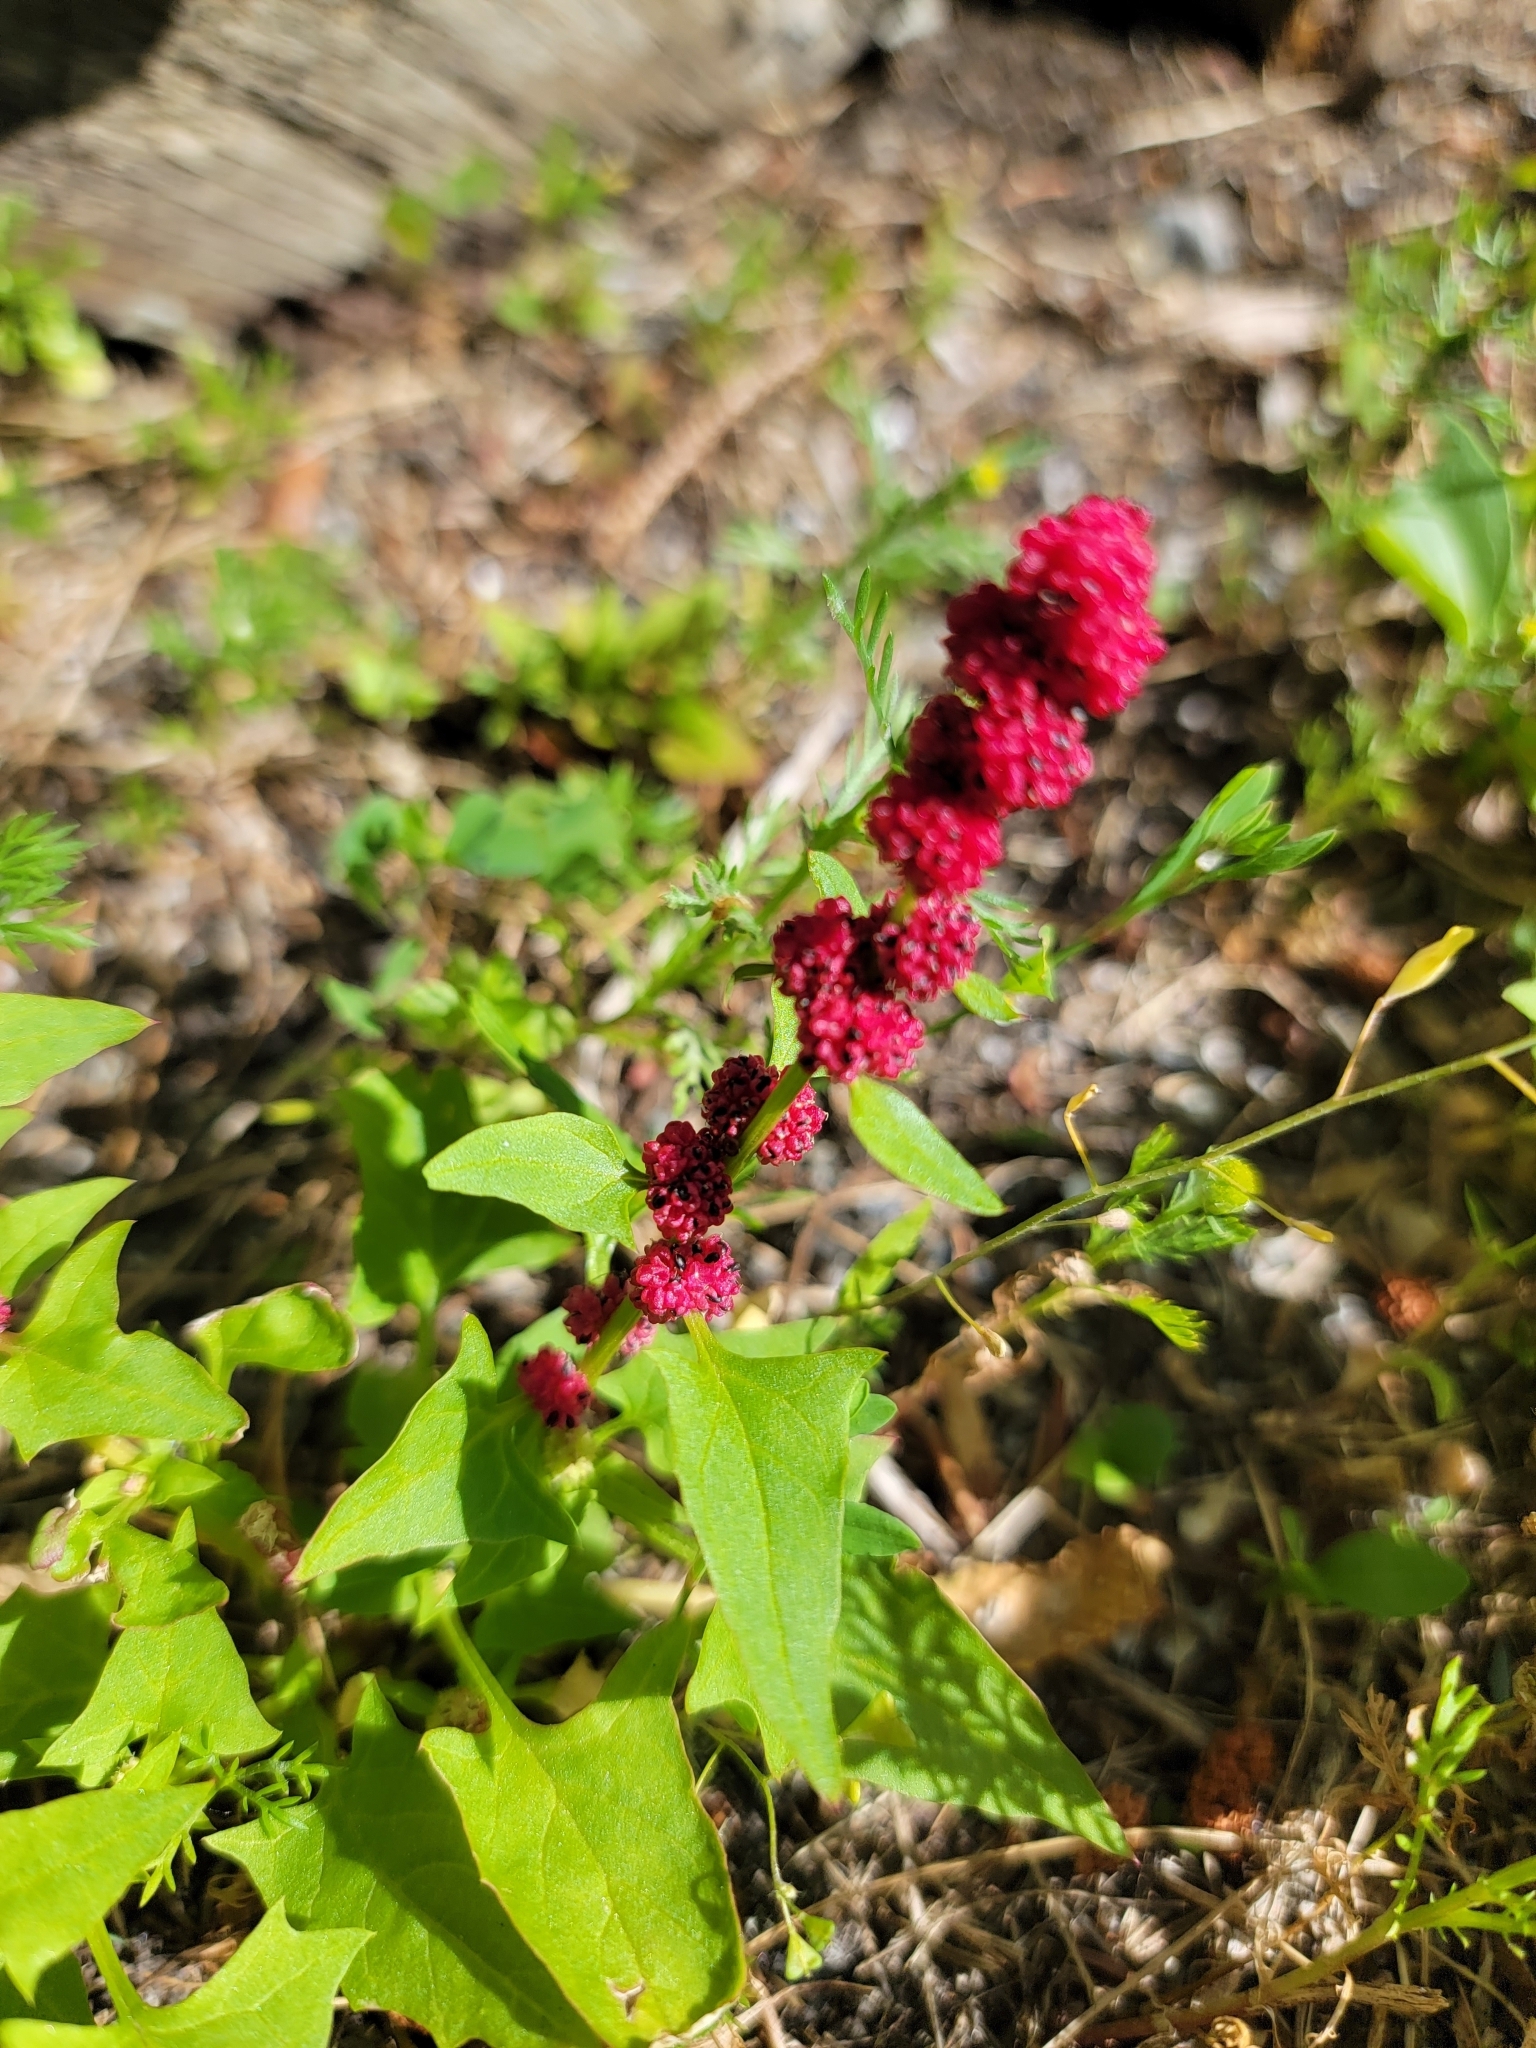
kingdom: Plantae
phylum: Tracheophyta
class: Magnoliopsida
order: Caryophyllales
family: Amaranthaceae
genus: Blitum
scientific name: Blitum capitatum
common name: Strawberry-blight
